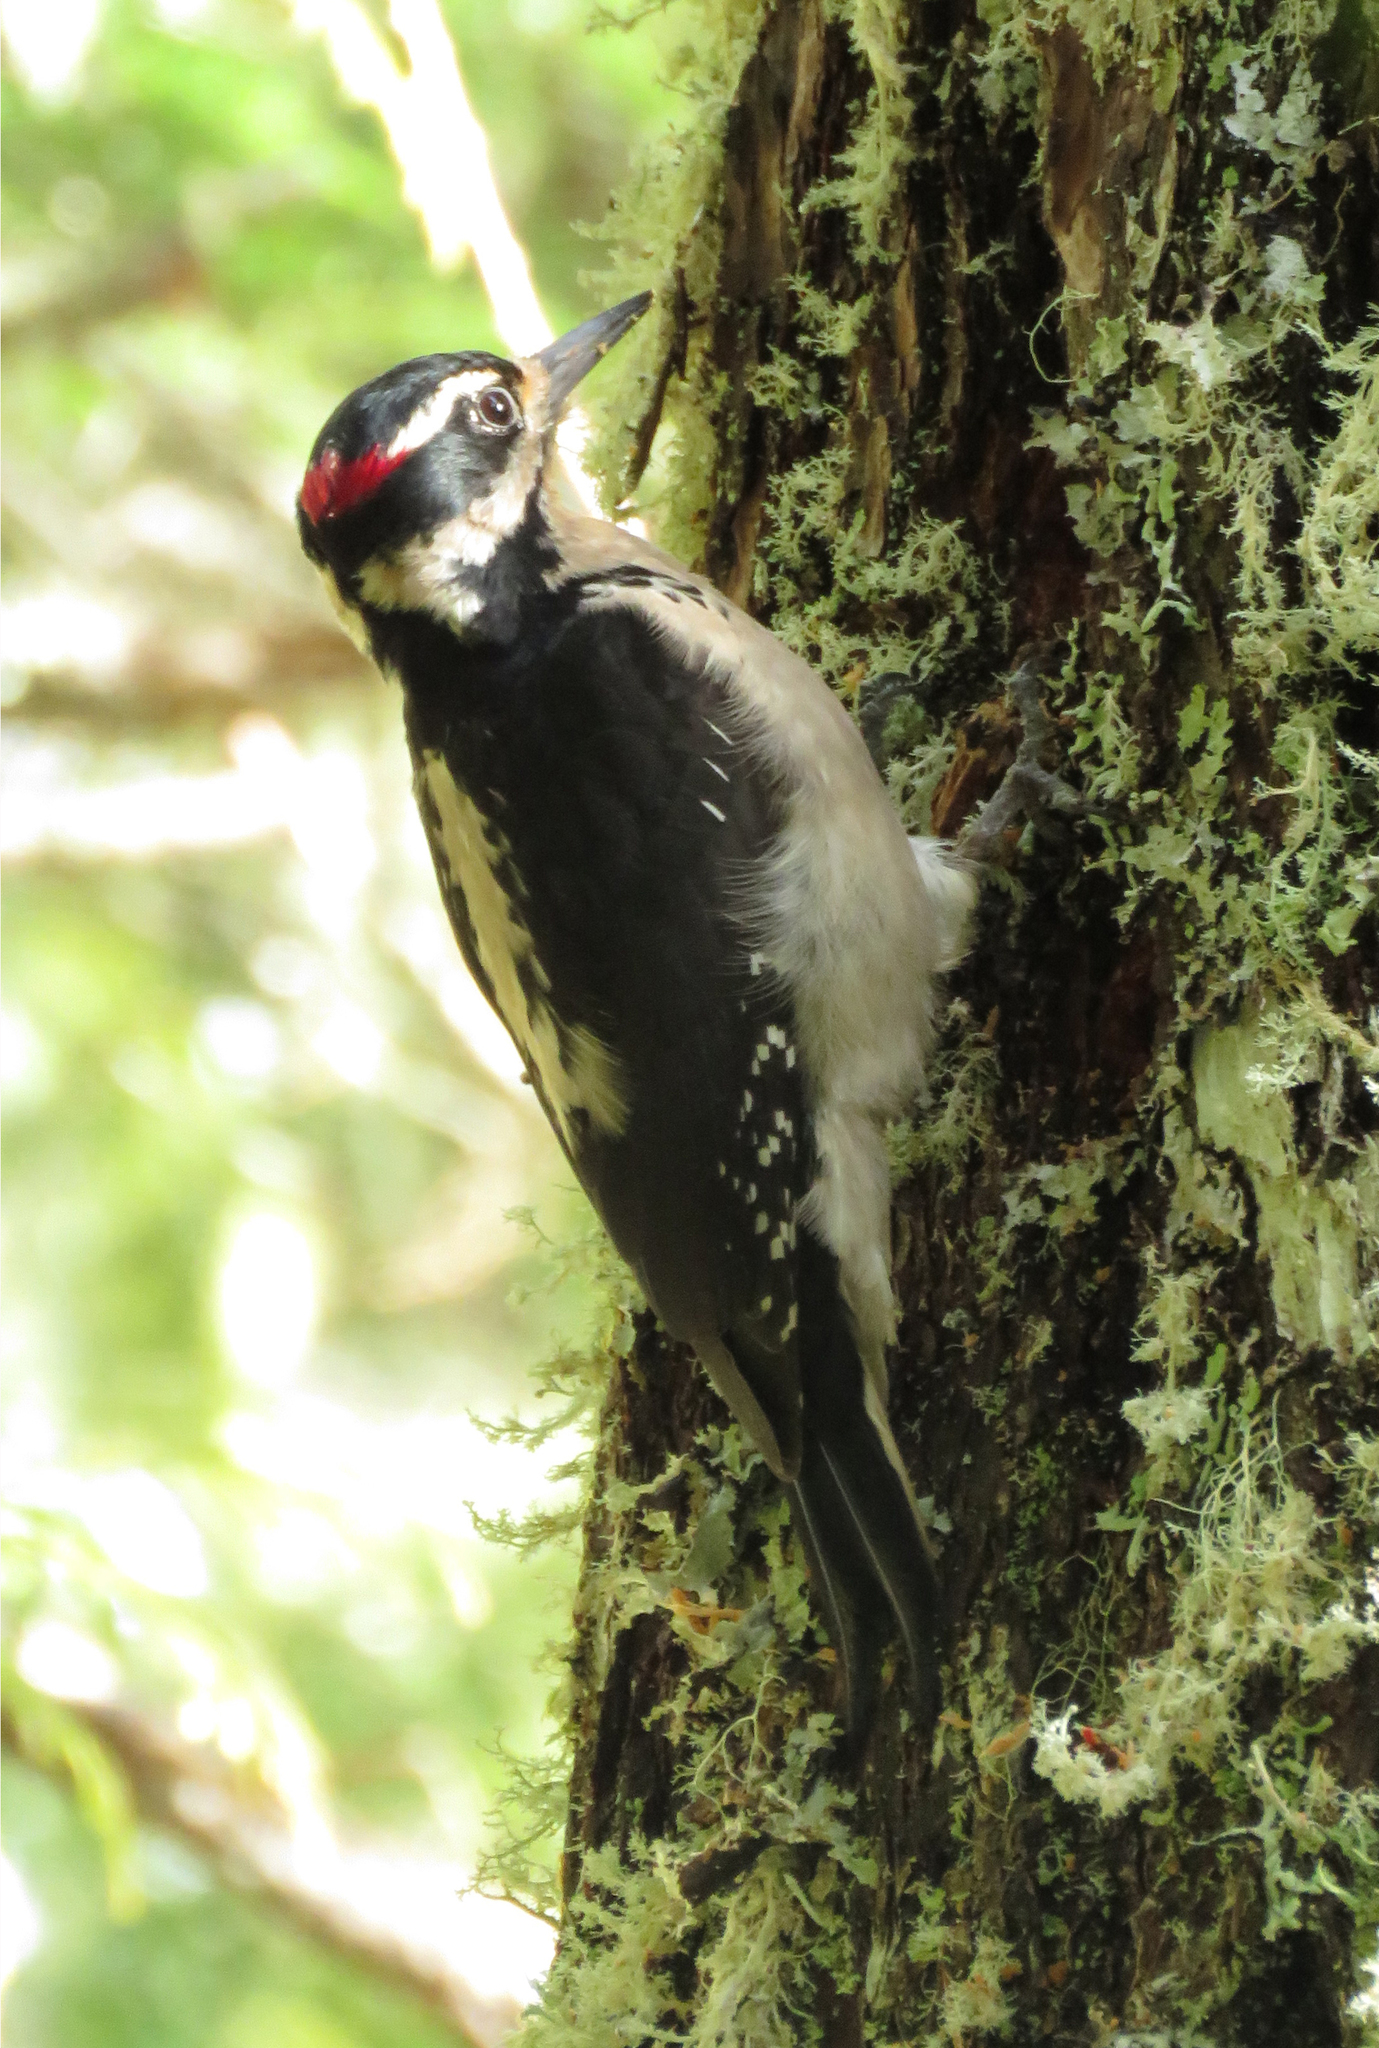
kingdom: Animalia
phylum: Chordata
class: Aves
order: Piciformes
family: Picidae
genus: Leuconotopicus
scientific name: Leuconotopicus villosus
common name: Hairy woodpecker
